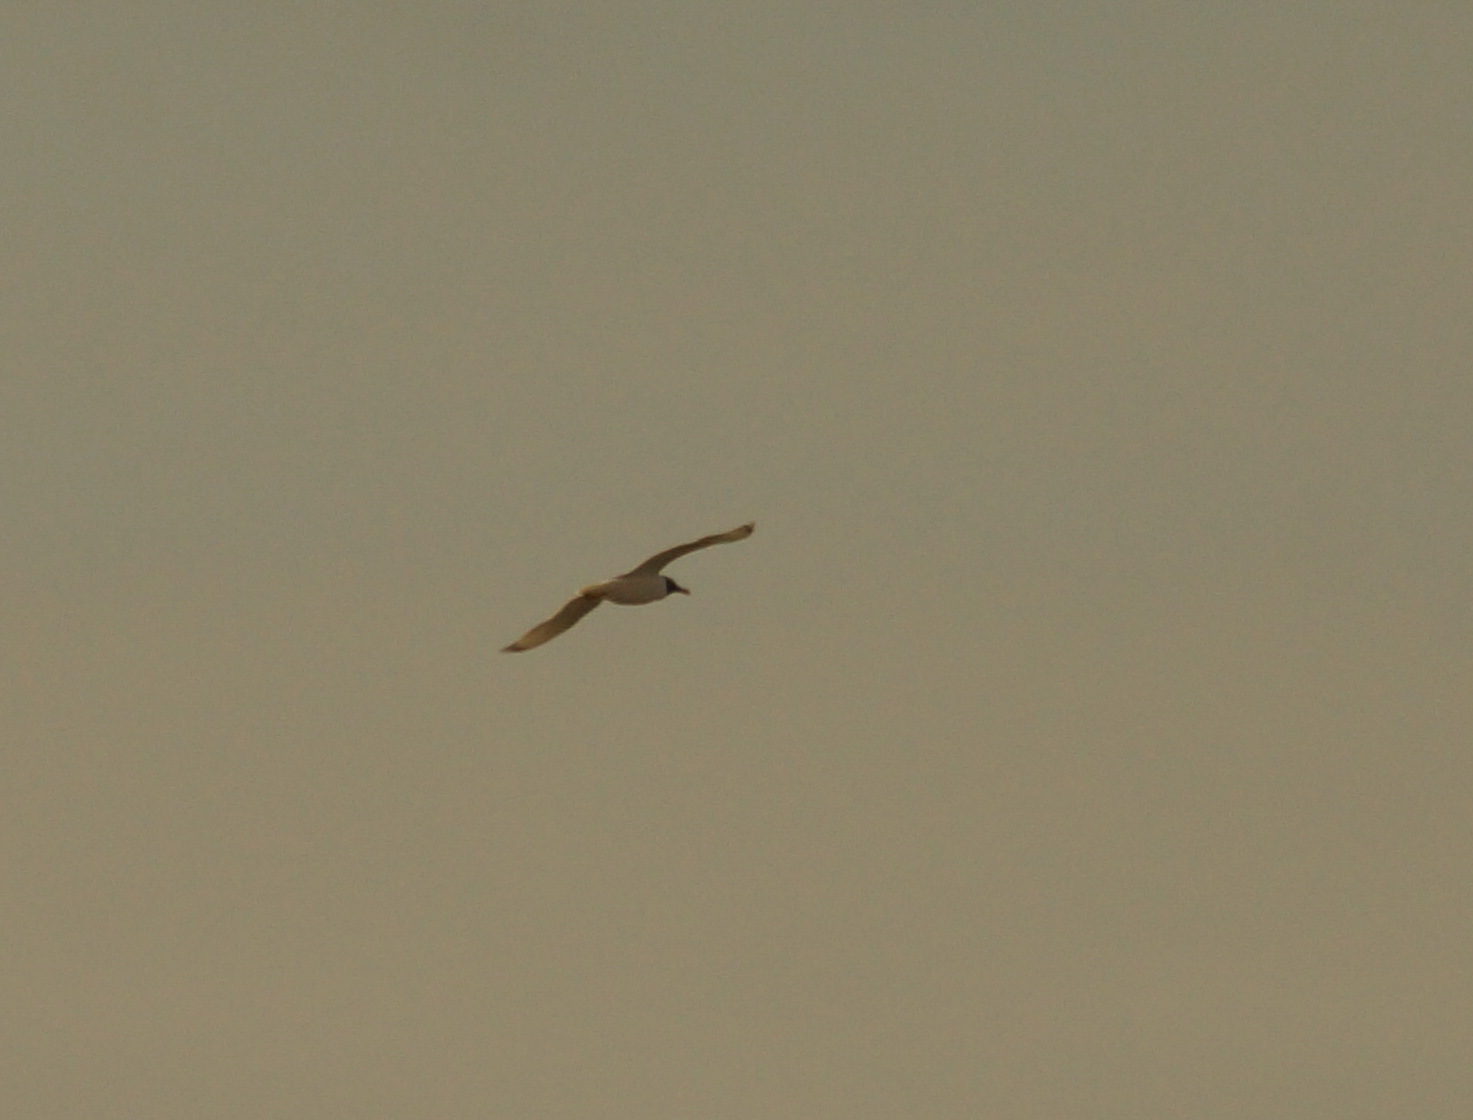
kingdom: Animalia
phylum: Chordata
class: Aves
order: Charadriiformes
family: Laridae
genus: Ichthyaetus
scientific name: Ichthyaetus ichthyaetus
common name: Pallas's gull
